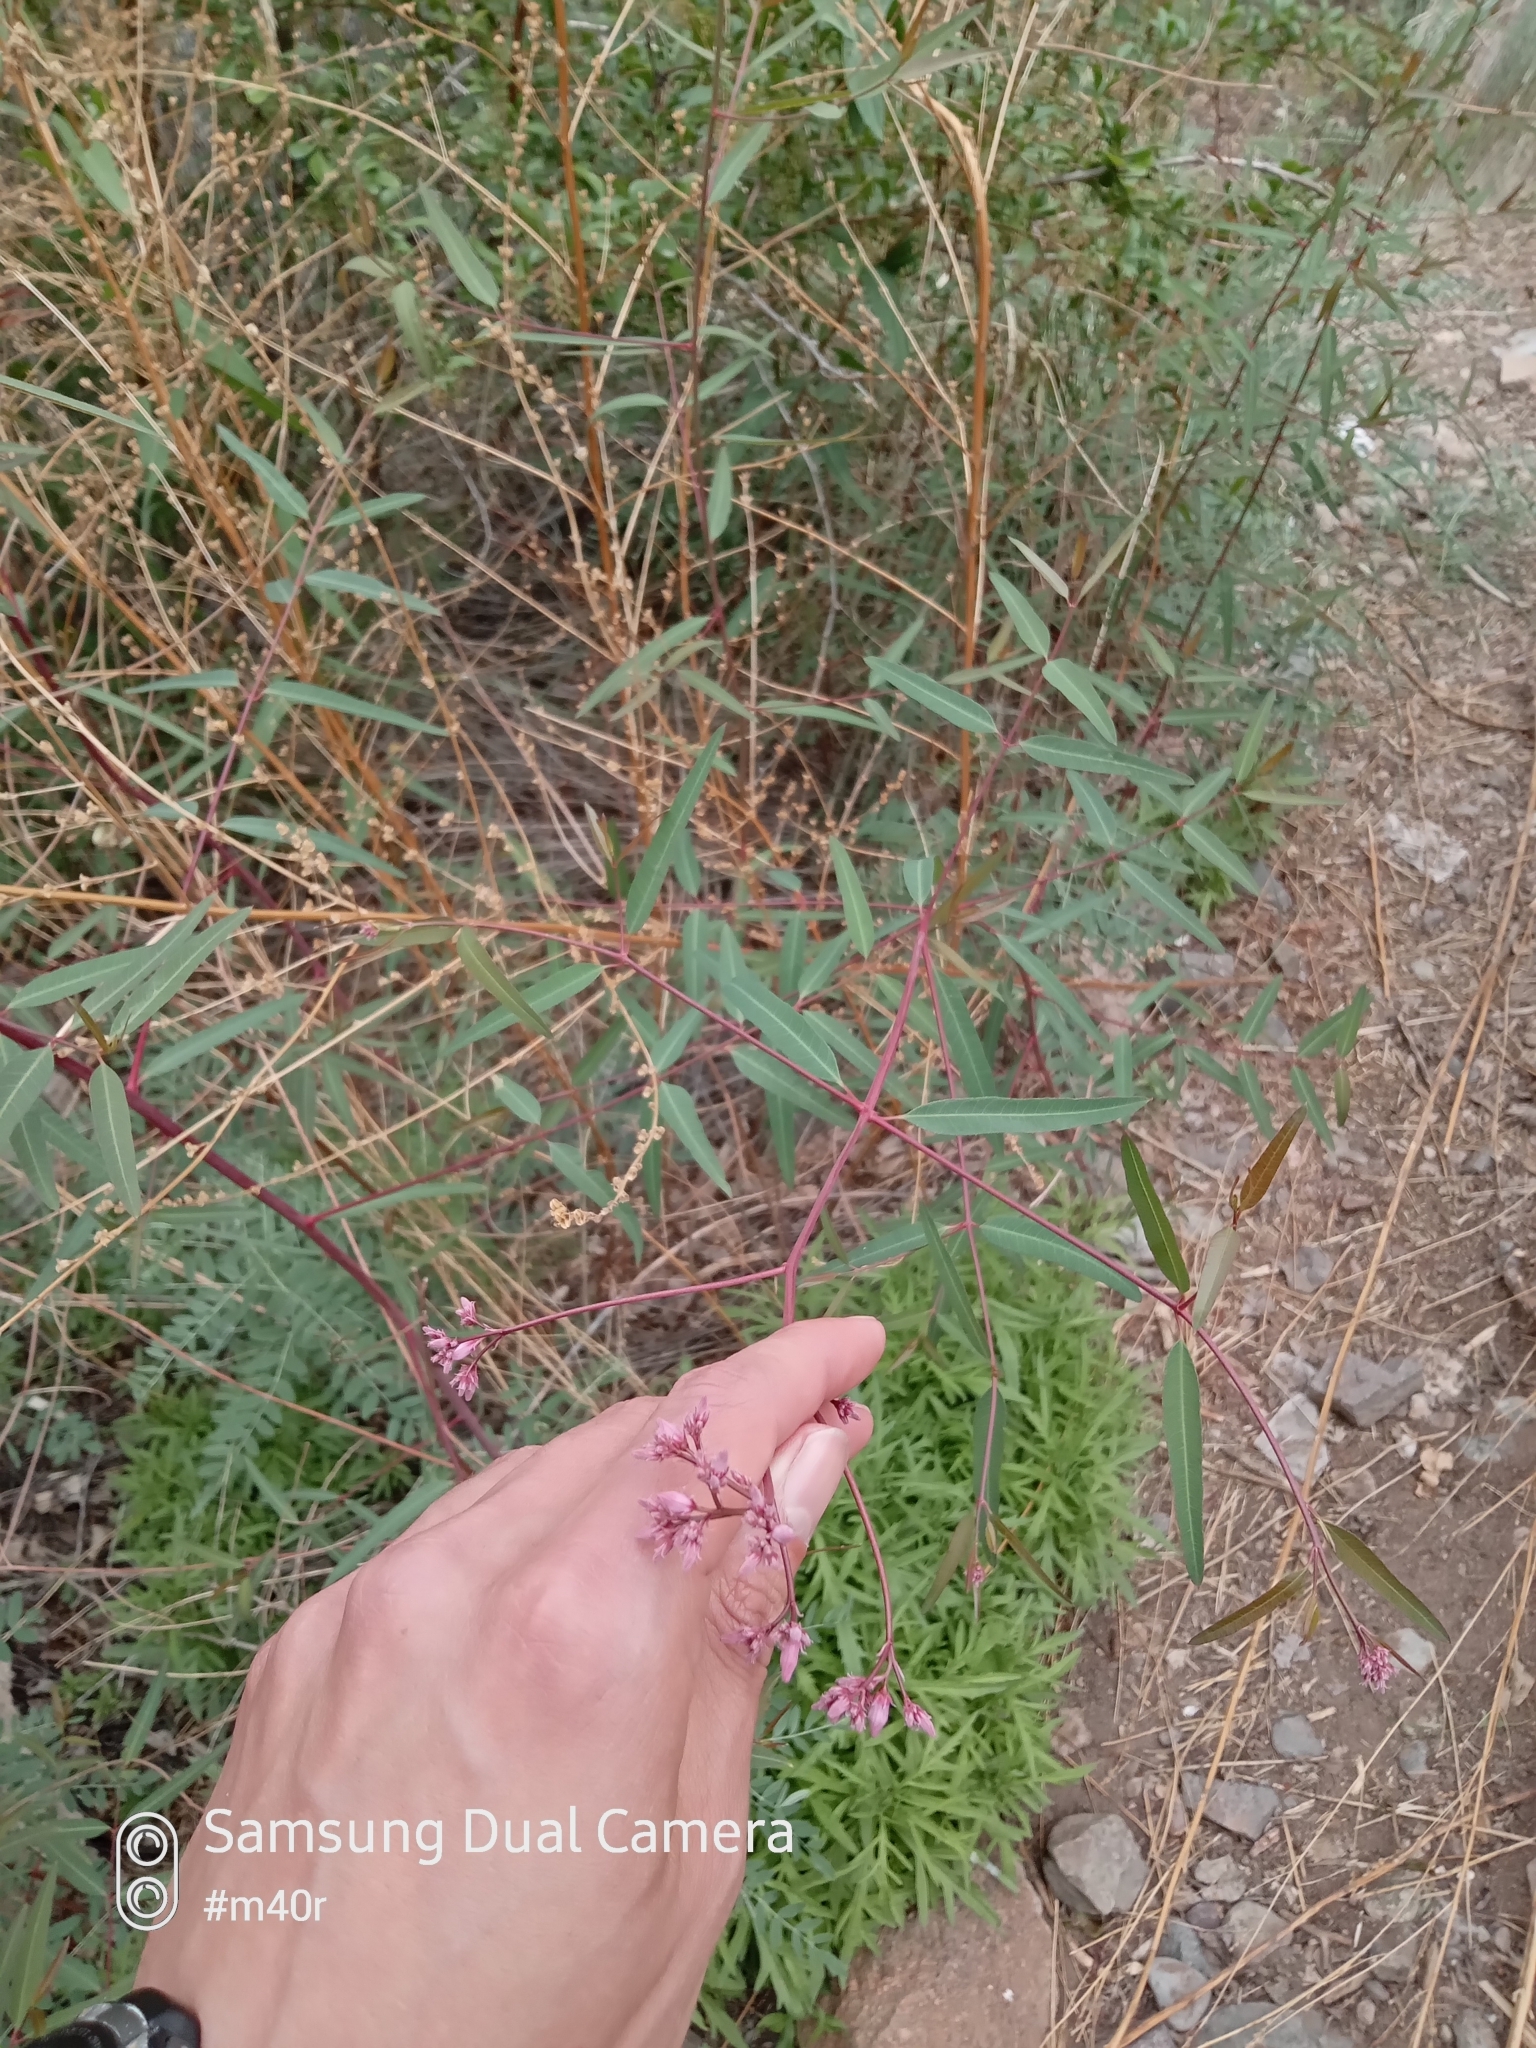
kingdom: Plantae
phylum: Tracheophyta
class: Magnoliopsida
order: Gentianales
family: Apocynaceae
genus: Poacynum
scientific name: Poacynum lancifolium
